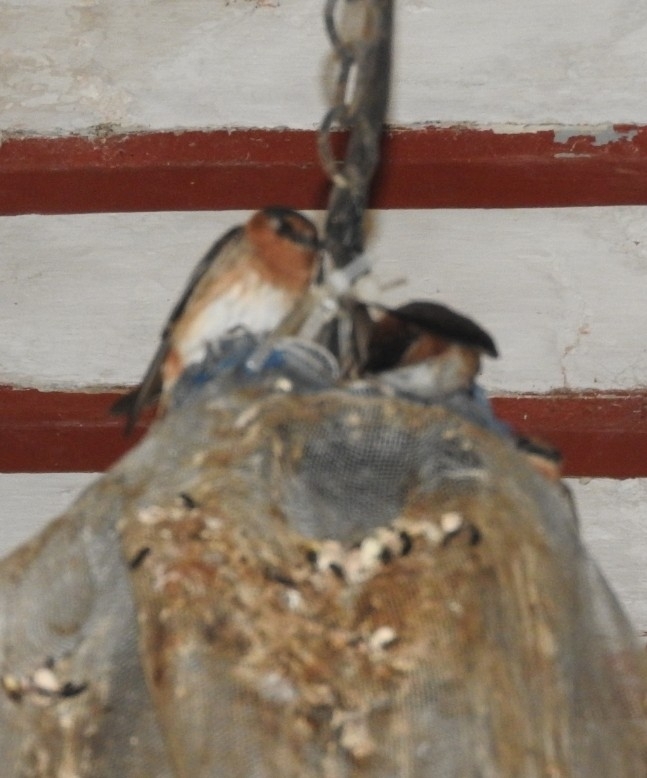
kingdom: Animalia
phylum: Chordata
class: Aves
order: Passeriformes
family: Hirundinidae
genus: Petrochelidon
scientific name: Petrochelidon fulva
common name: Cave swallow
